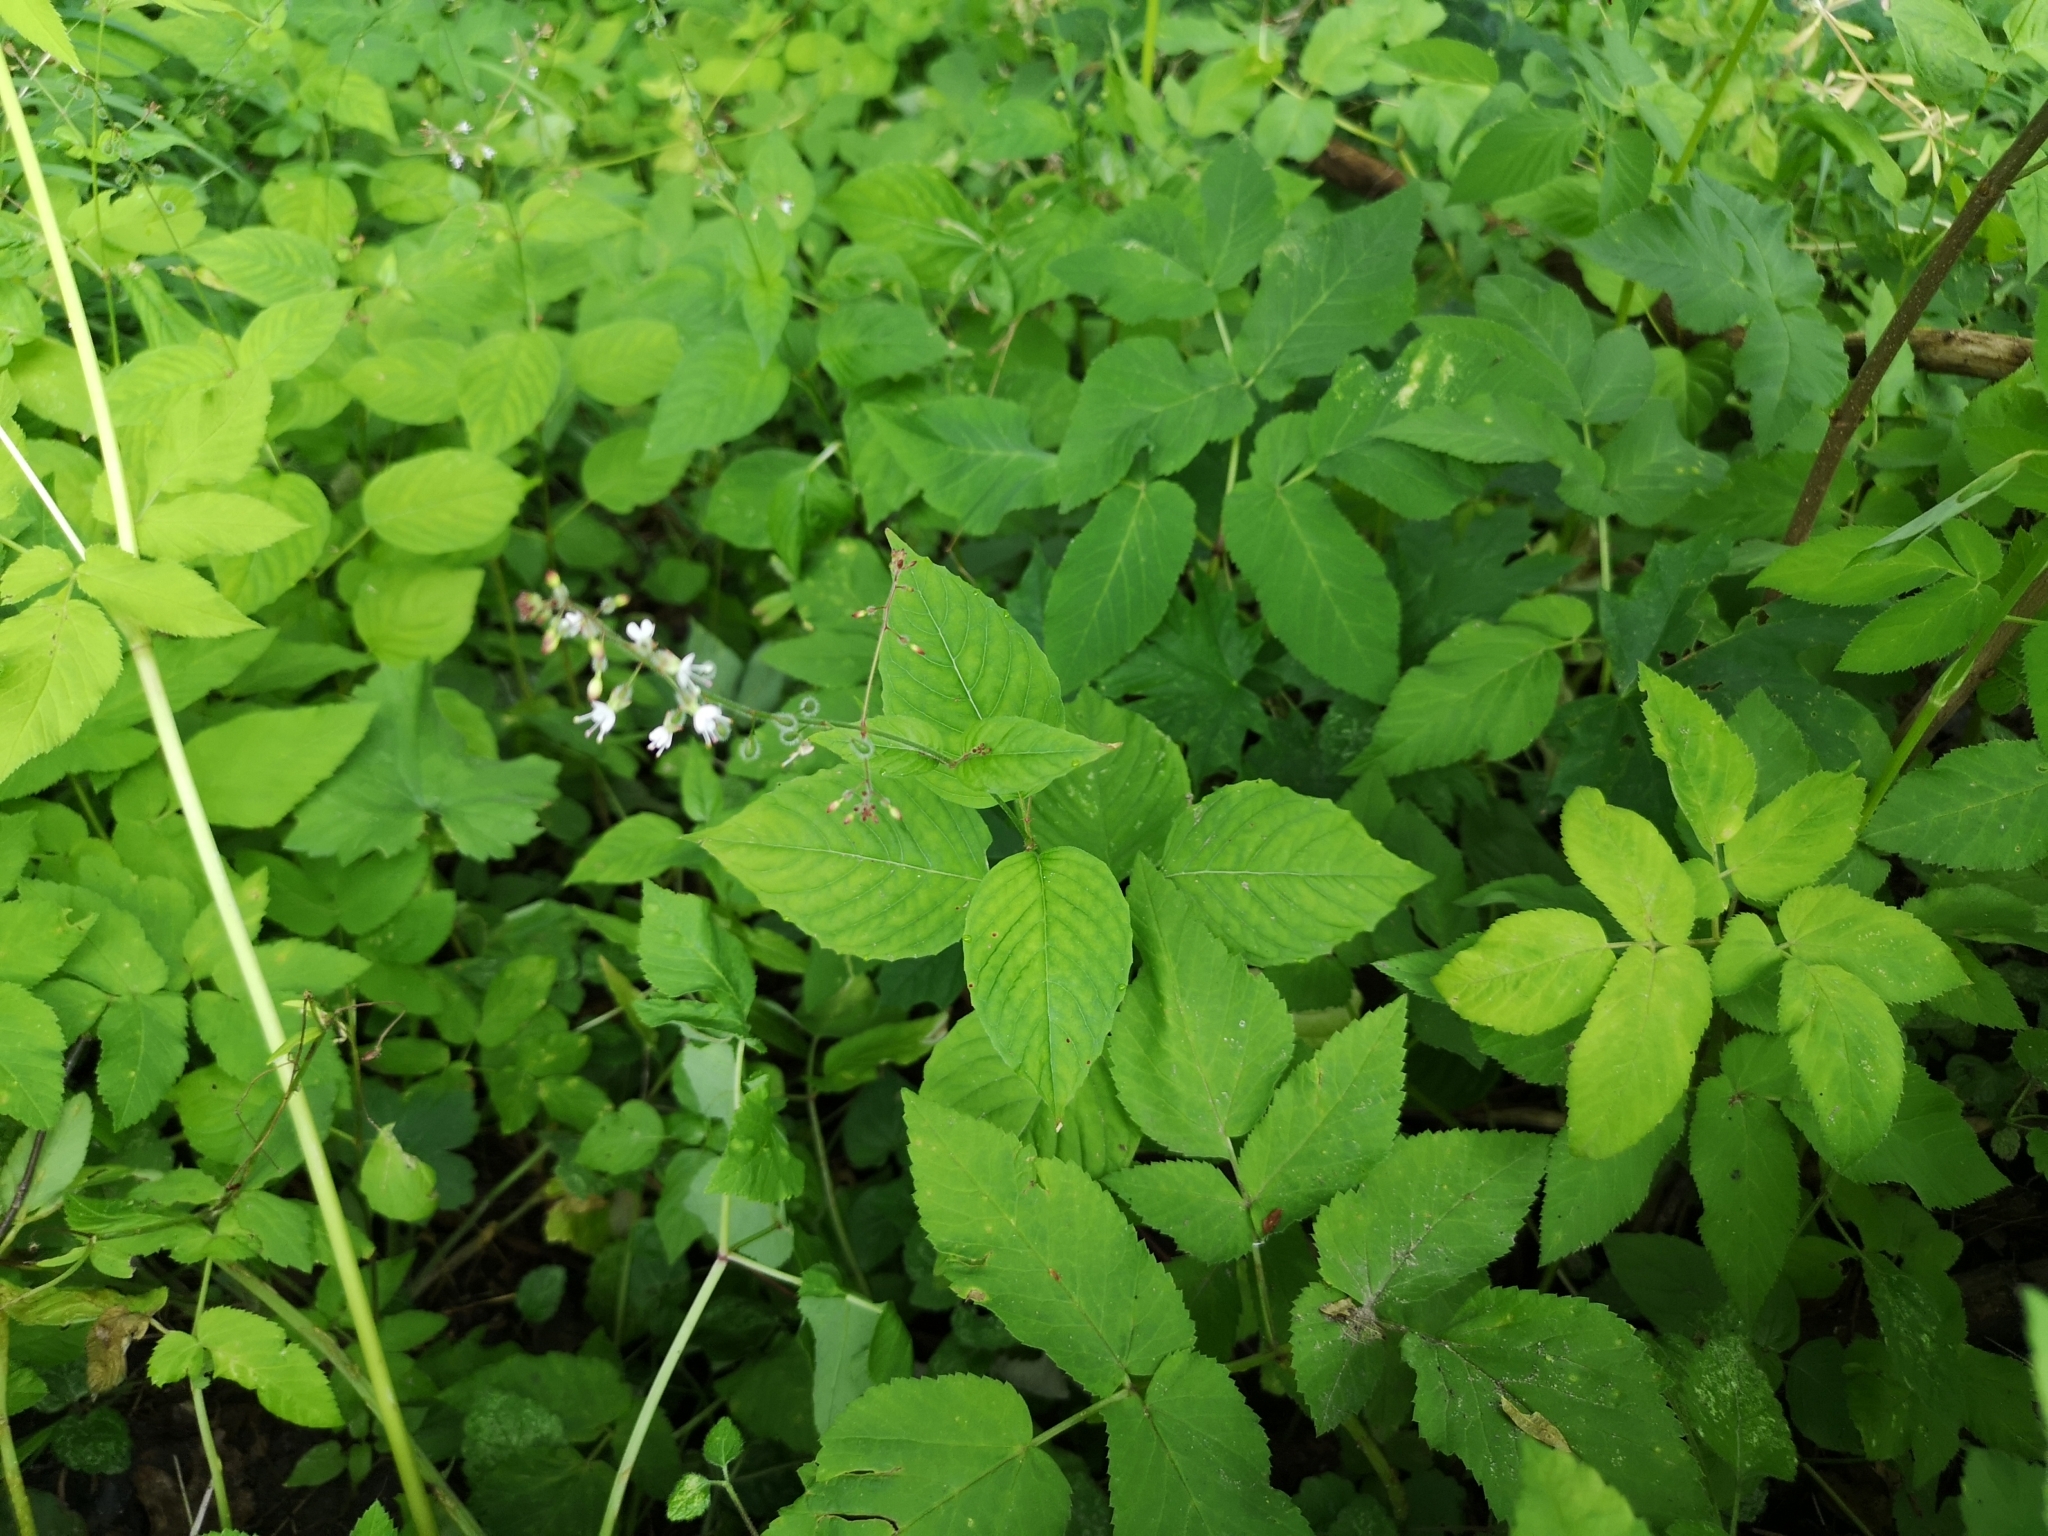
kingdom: Plantae
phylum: Tracheophyta
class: Magnoliopsida
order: Myrtales
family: Onagraceae
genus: Circaea
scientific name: Circaea lutetiana
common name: Enchanter's-nightshade
